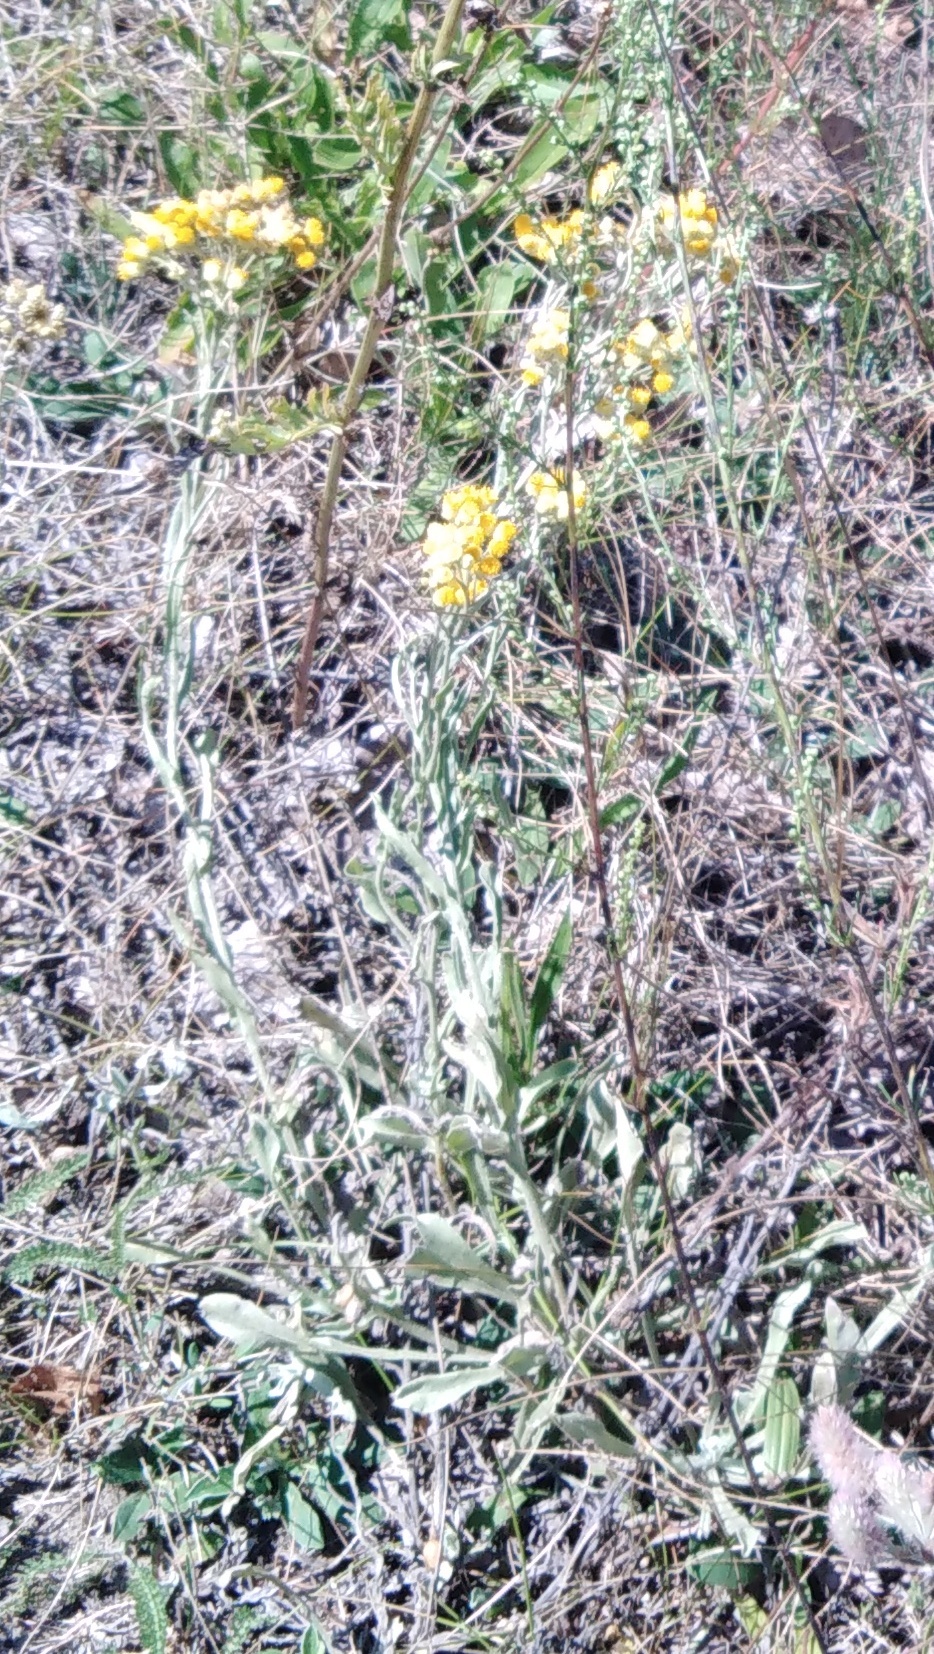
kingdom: Plantae
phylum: Tracheophyta
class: Magnoliopsida
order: Asterales
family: Asteraceae
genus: Helichrysum
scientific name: Helichrysum arenarium
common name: Strawflower
